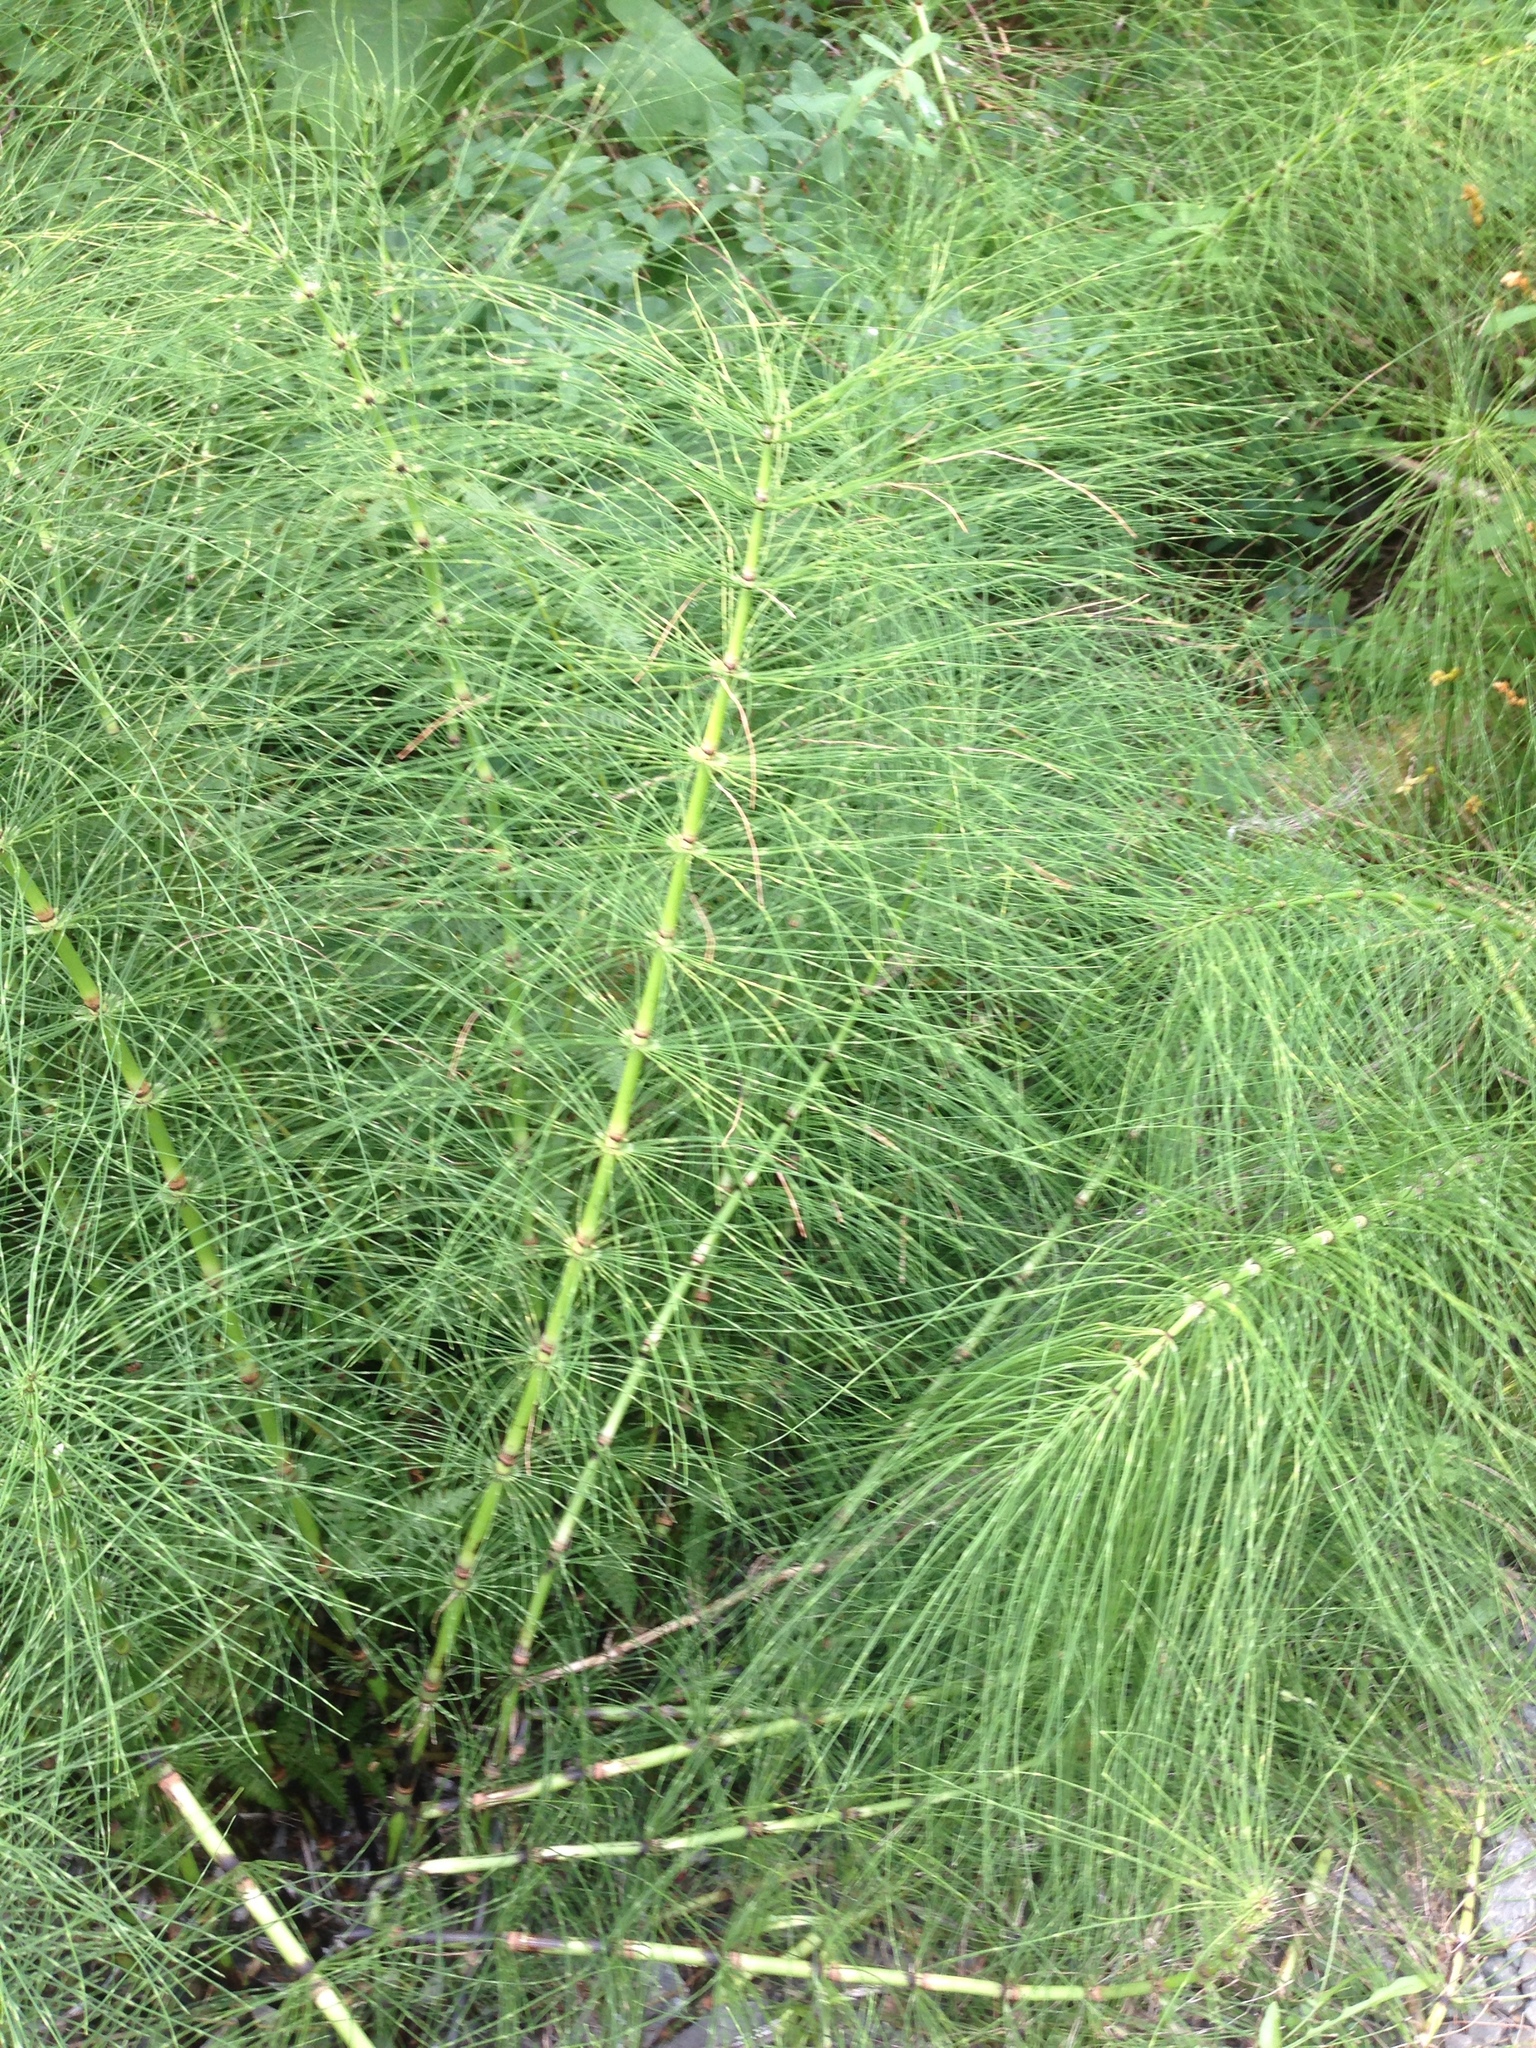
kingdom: Plantae
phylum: Tracheophyta
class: Polypodiopsida
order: Equisetales
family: Equisetaceae
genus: Equisetum
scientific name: Equisetum braunii
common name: Braun's horsetail
